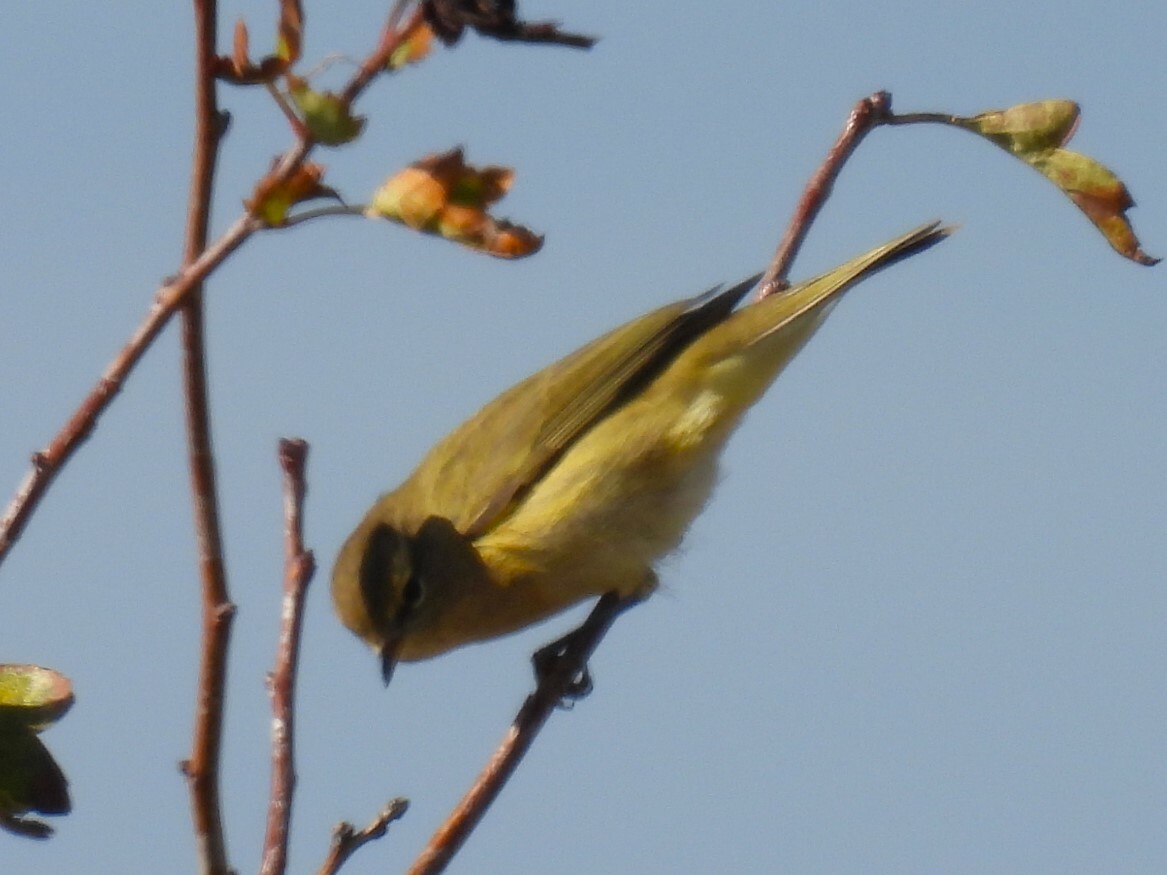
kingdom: Animalia
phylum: Chordata
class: Aves
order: Passeriformes
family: Phylloscopidae
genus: Phylloscopus
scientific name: Phylloscopus collybita
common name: Common chiffchaff
